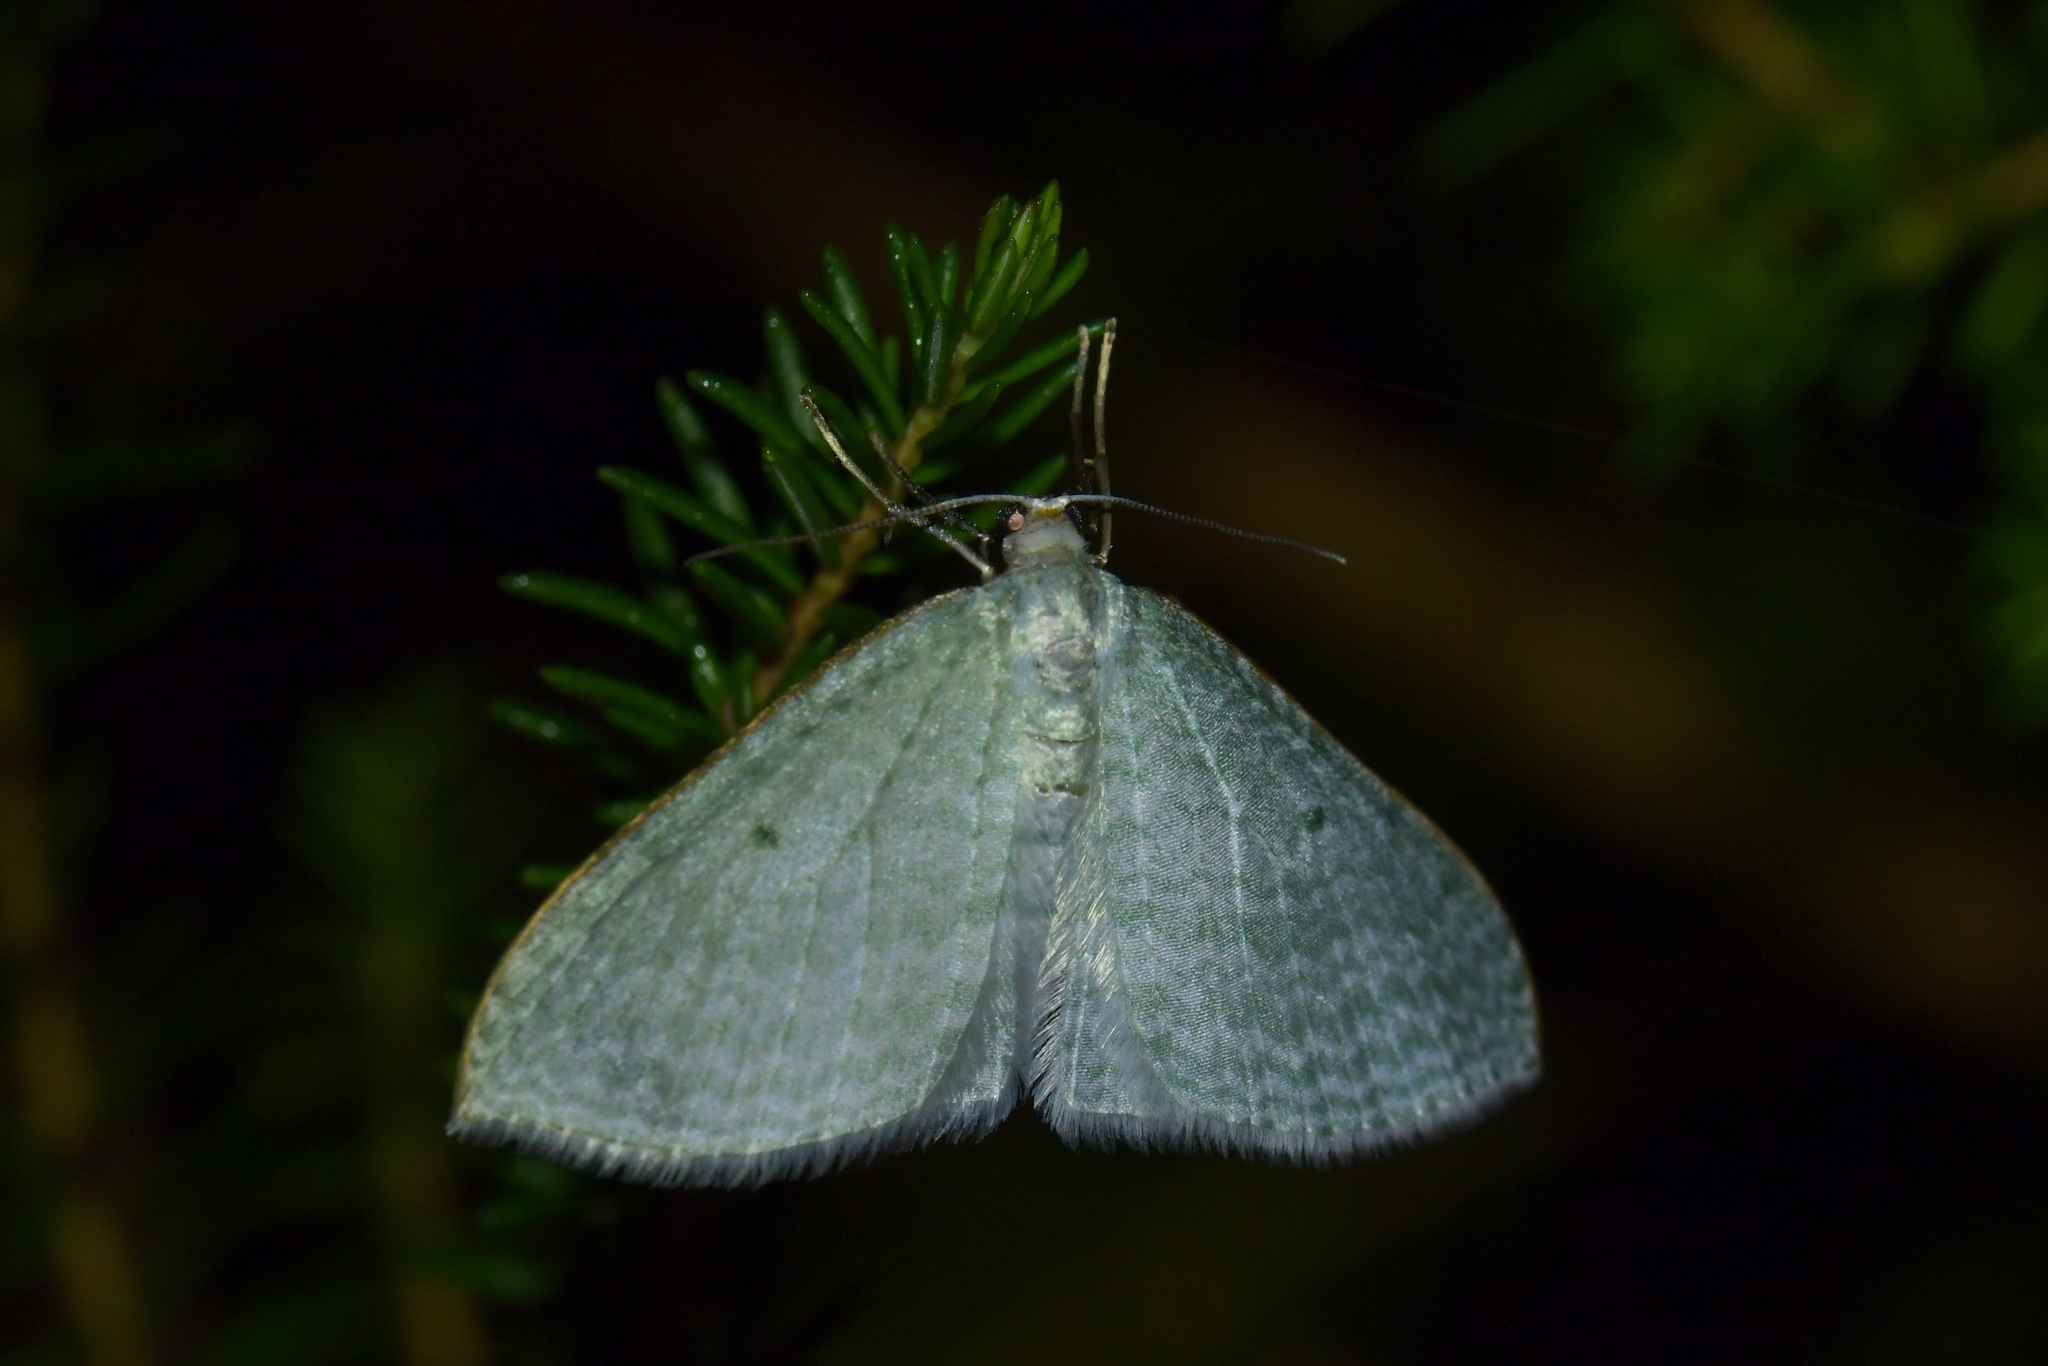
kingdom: Animalia
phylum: Arthropoda
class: Insecta
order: Lepidoptera
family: Geometridae
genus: Poecilasthena
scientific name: Poecilasthena pulchraria
